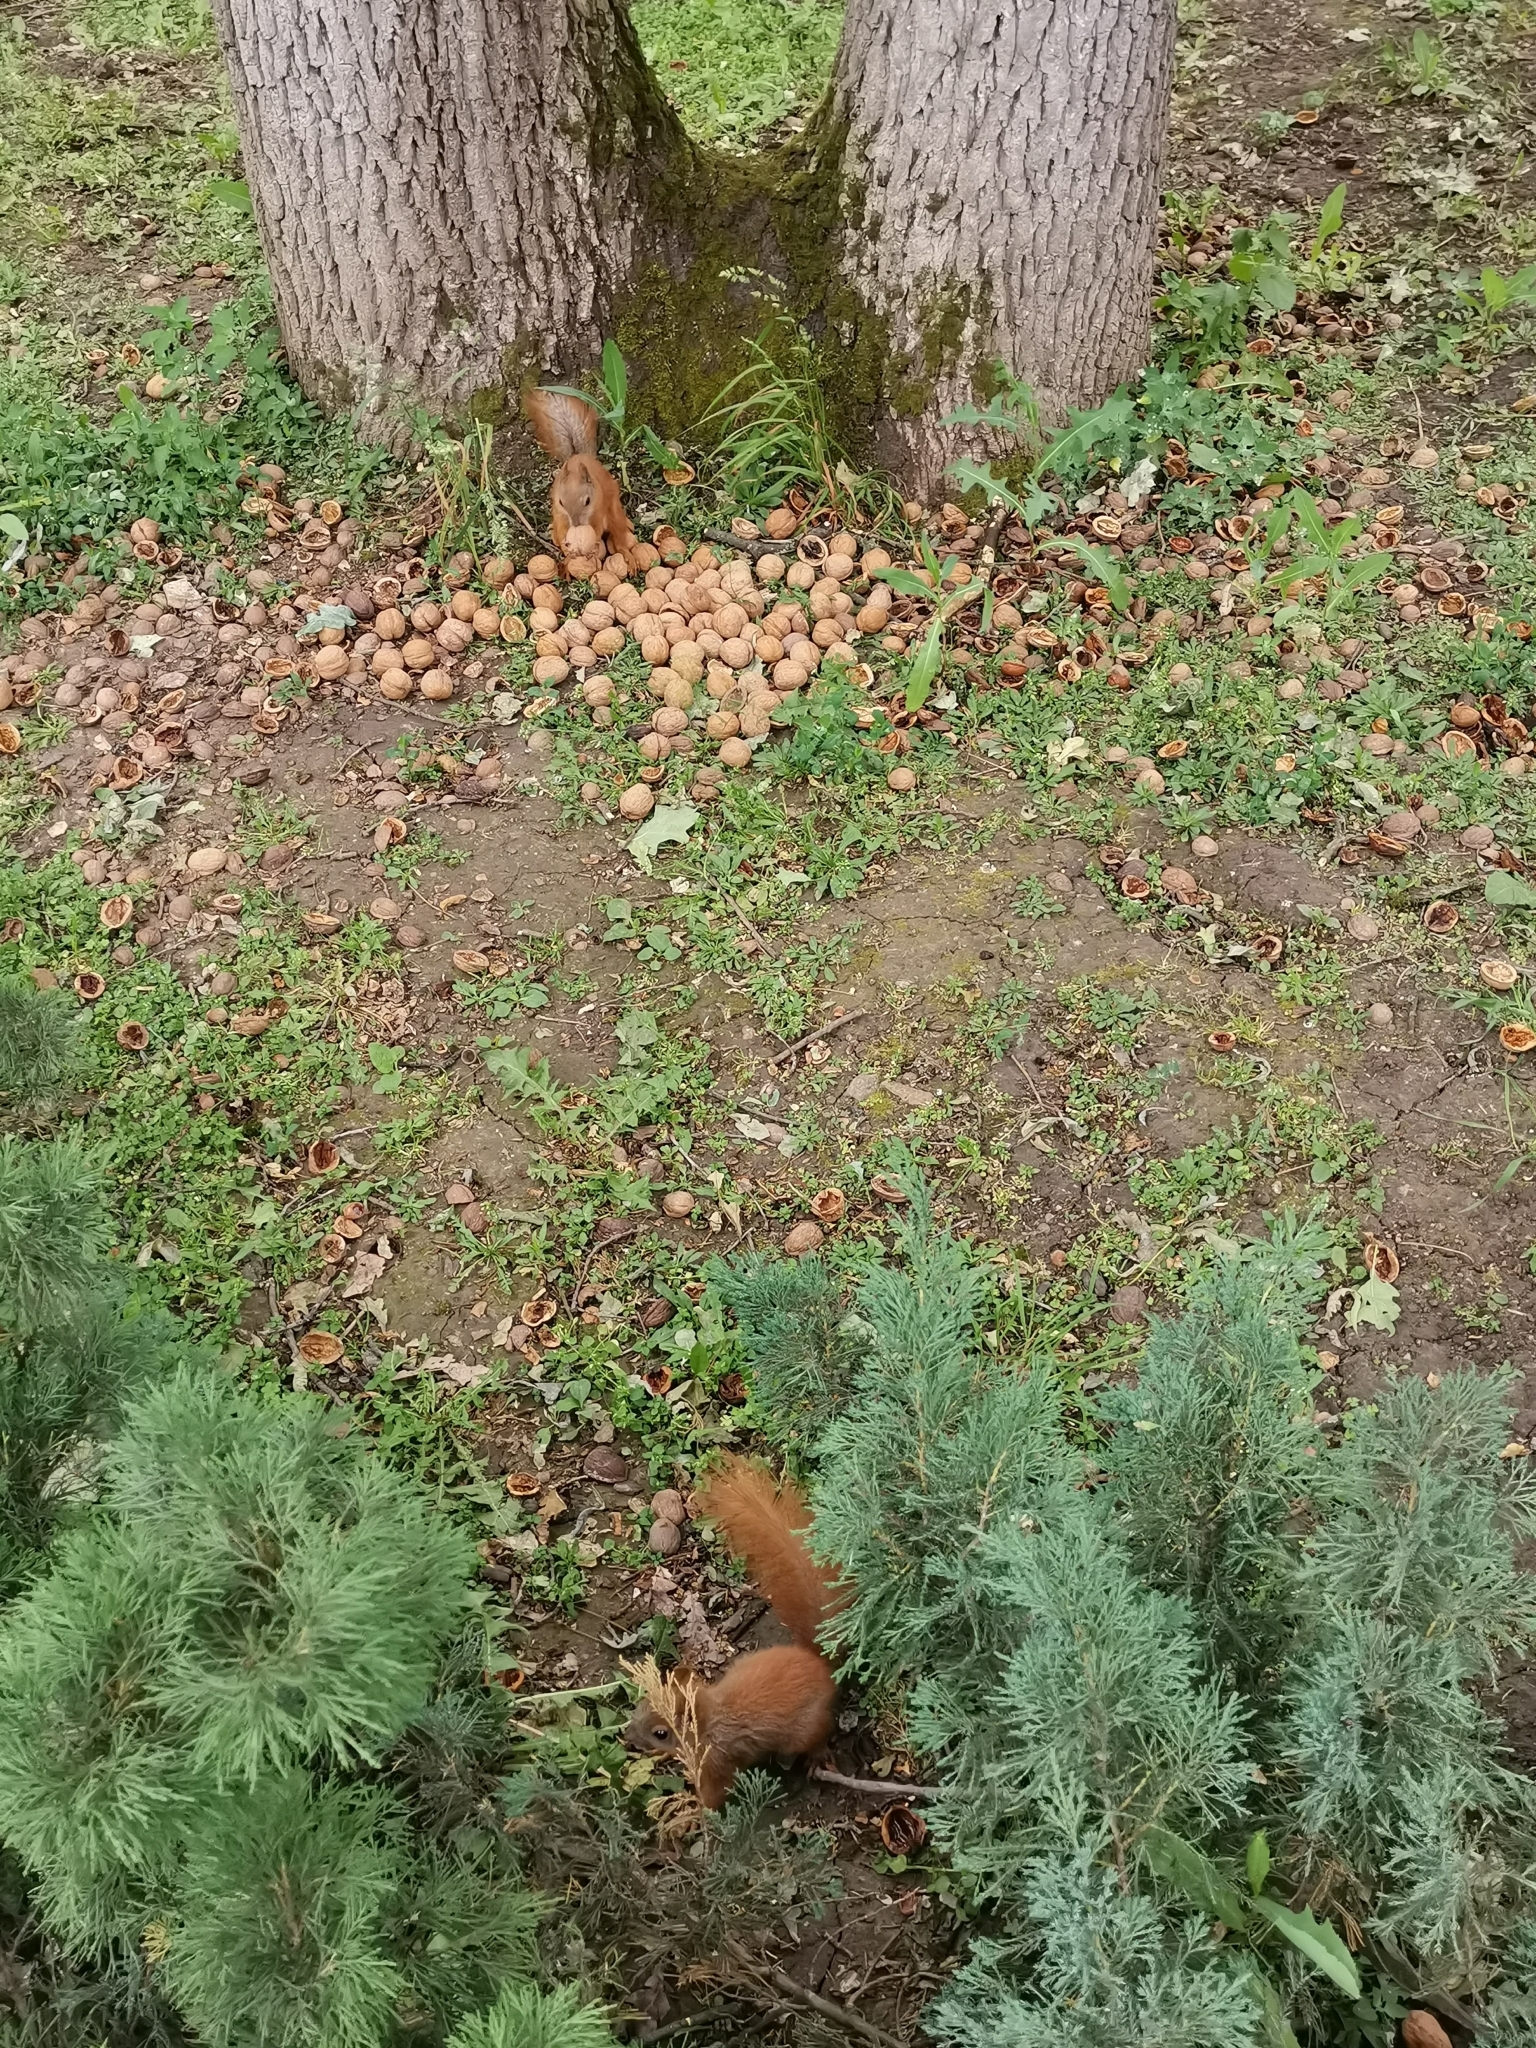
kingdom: Animalia
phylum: Chordata
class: Mammalia
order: Rodentia
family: Sciuridae
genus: Sciurus
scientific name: Sciurus vulgaris
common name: Eurasian red squirrel
